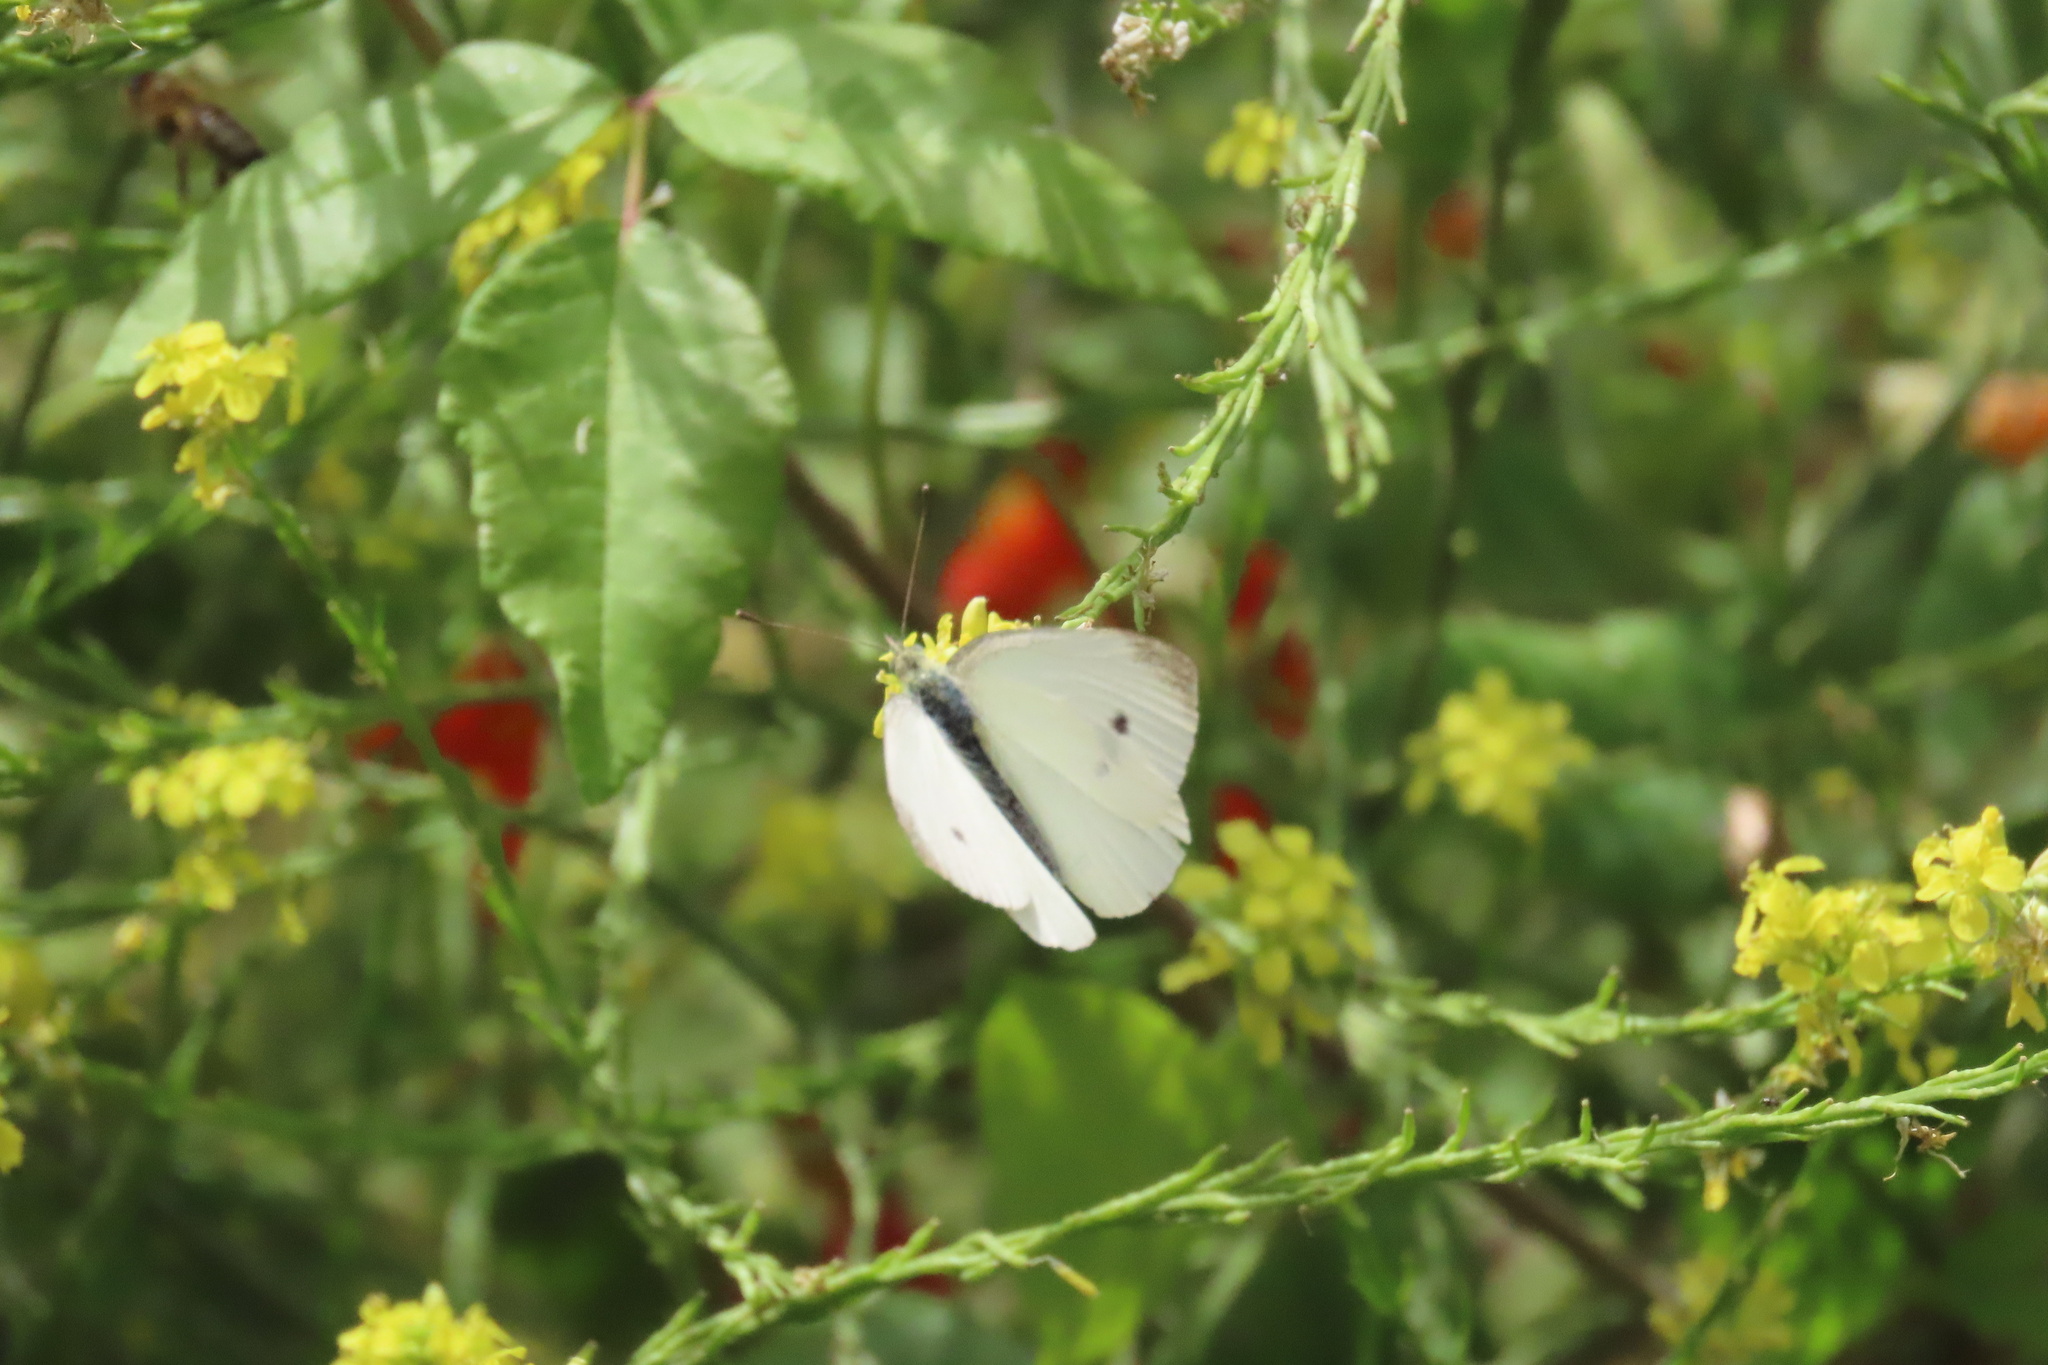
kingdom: Animalia
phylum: Arthropoda
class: Insecta
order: Lepidoptera
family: Pieridae
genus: Pieris
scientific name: Pieris rapae
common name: Small white
